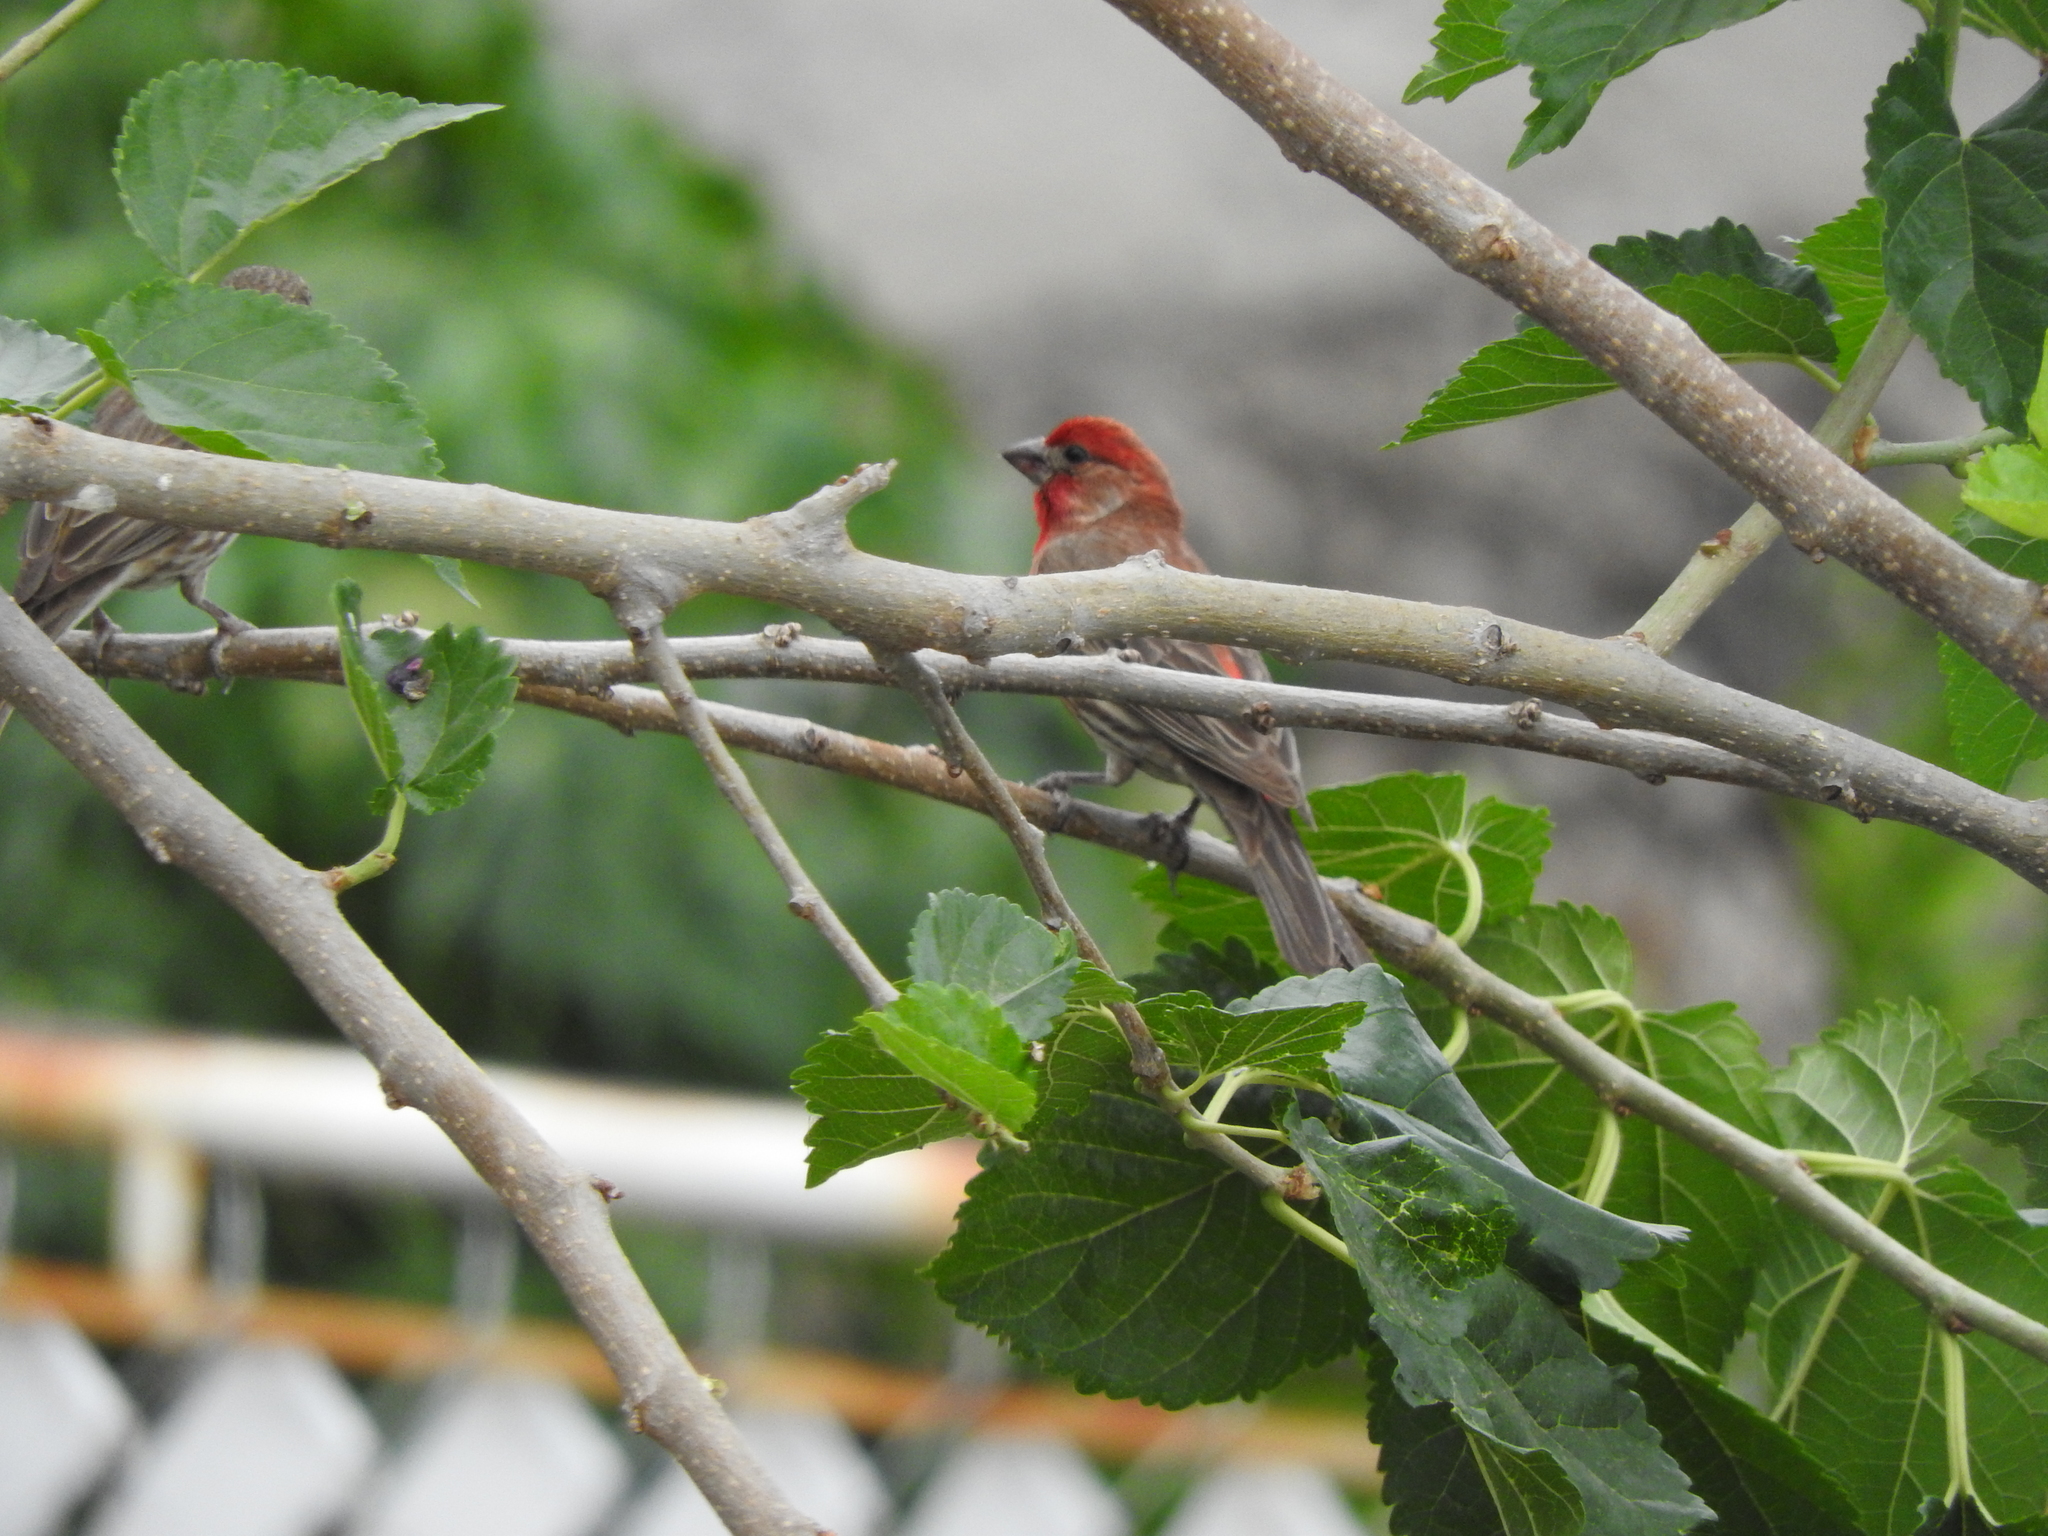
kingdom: Animalia
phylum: Chordata
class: Aves
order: Passeriformes
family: Fringillidae
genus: Haemorhous
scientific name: Haemorhous mexicanus
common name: House finch
